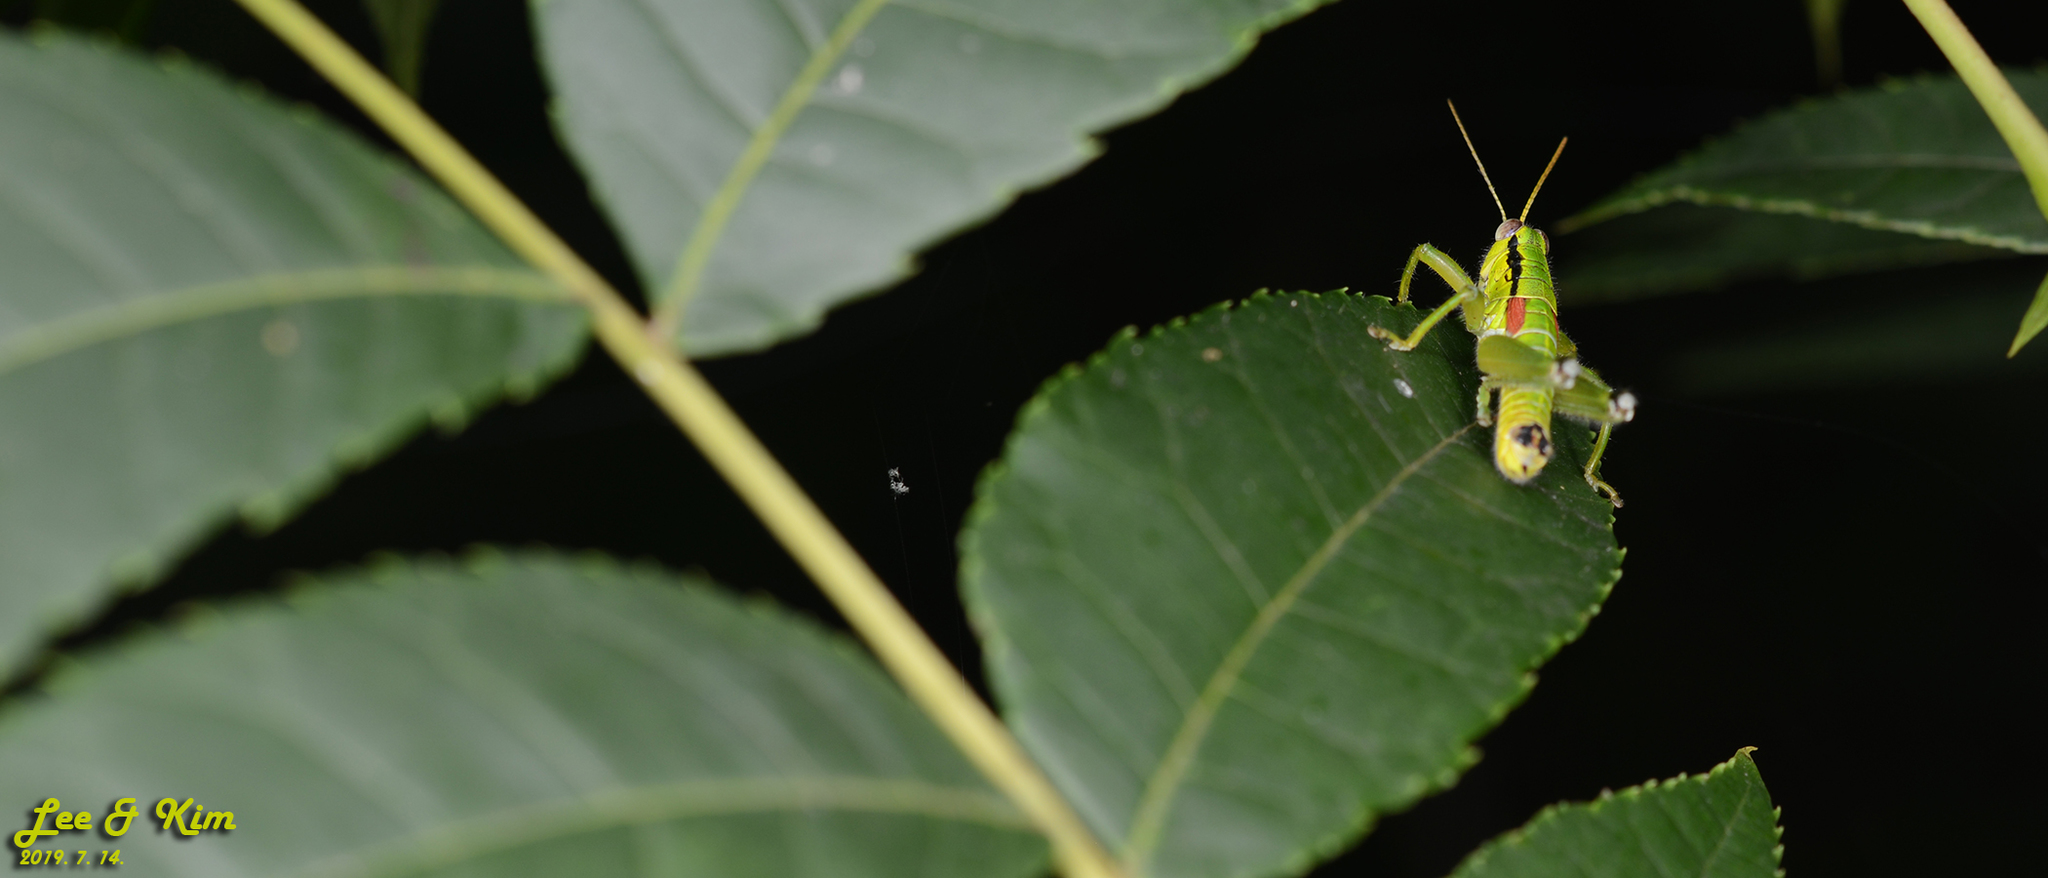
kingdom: Animalia
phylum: Arthropoda
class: Insecta
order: Orthoptera
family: Acrididae
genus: Anapodisma
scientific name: Anapodisma miramae
